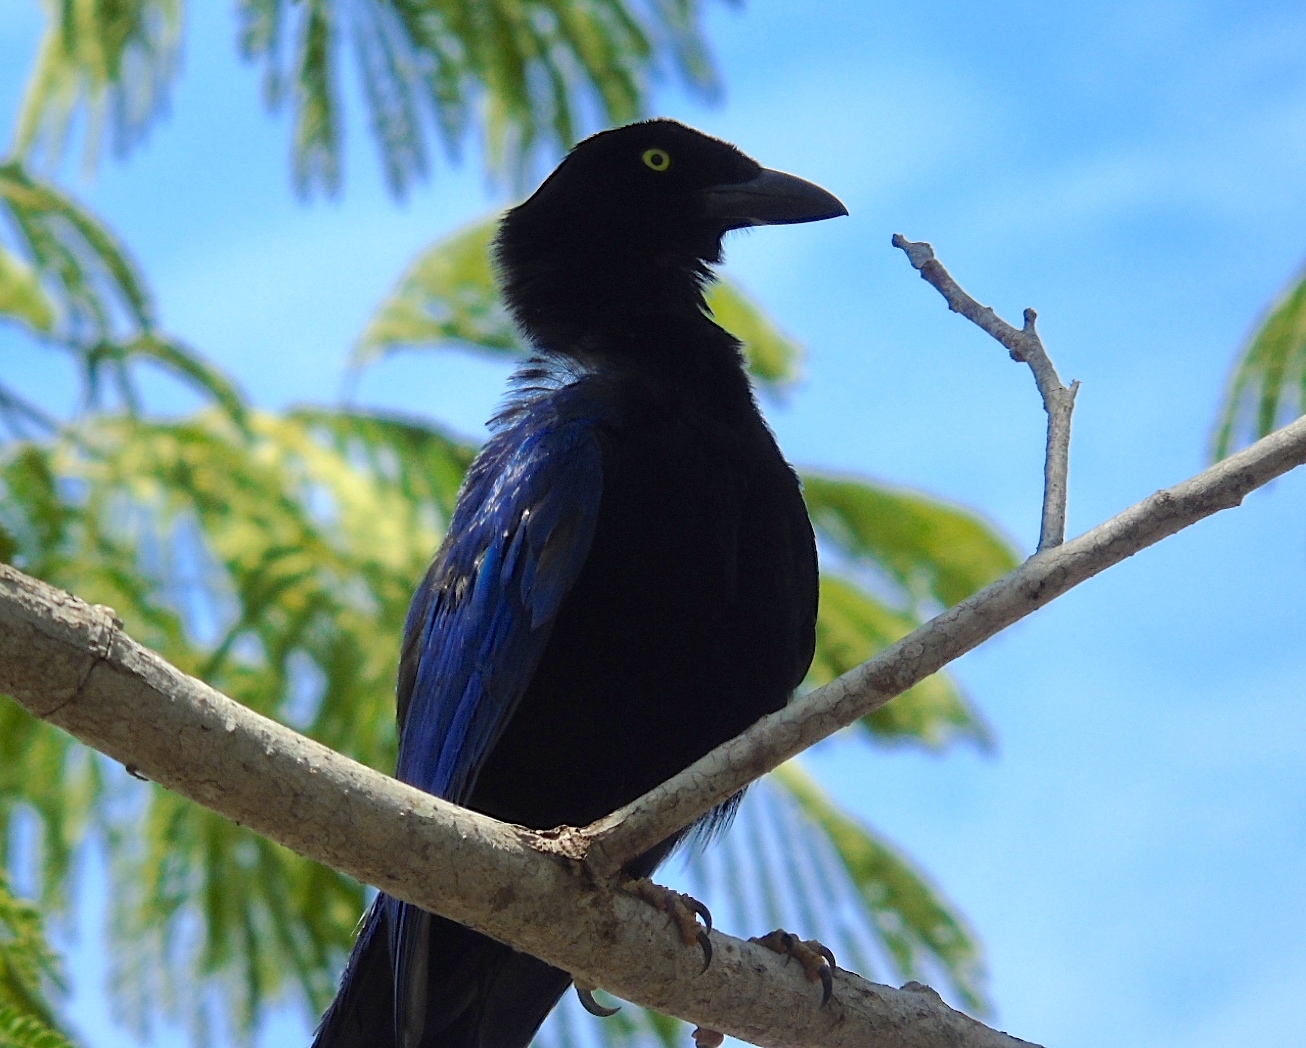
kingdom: Animalia
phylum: Chordata
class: Aves
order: Passeriformes
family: Corvidae
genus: Cyanocorax
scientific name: Cyanocorax beecheii
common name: Purplish-backed jay
